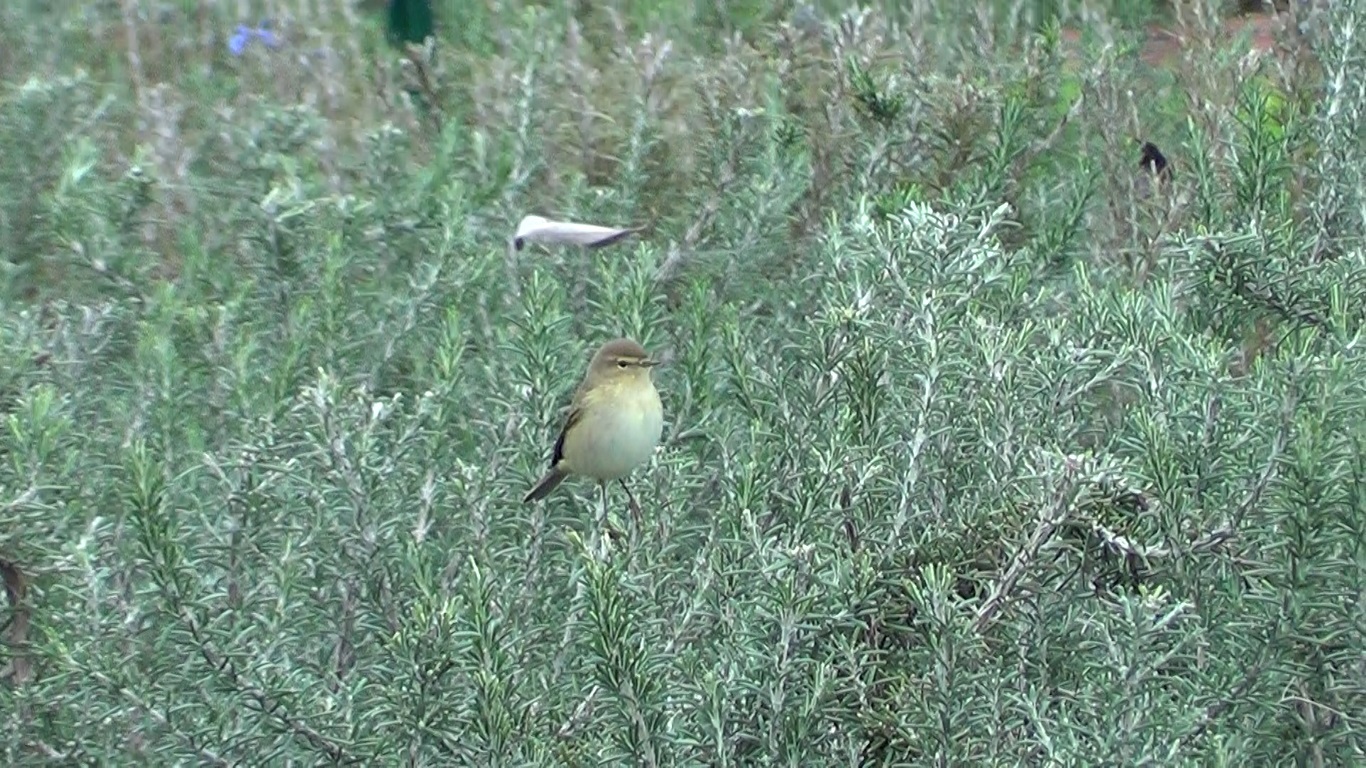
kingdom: Animalia
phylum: Chordata
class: Aves
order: Passeriformes
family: Phylloscopidae
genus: Phylloscopus
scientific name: Phylloscopus collybita
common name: Common chiffchaff
